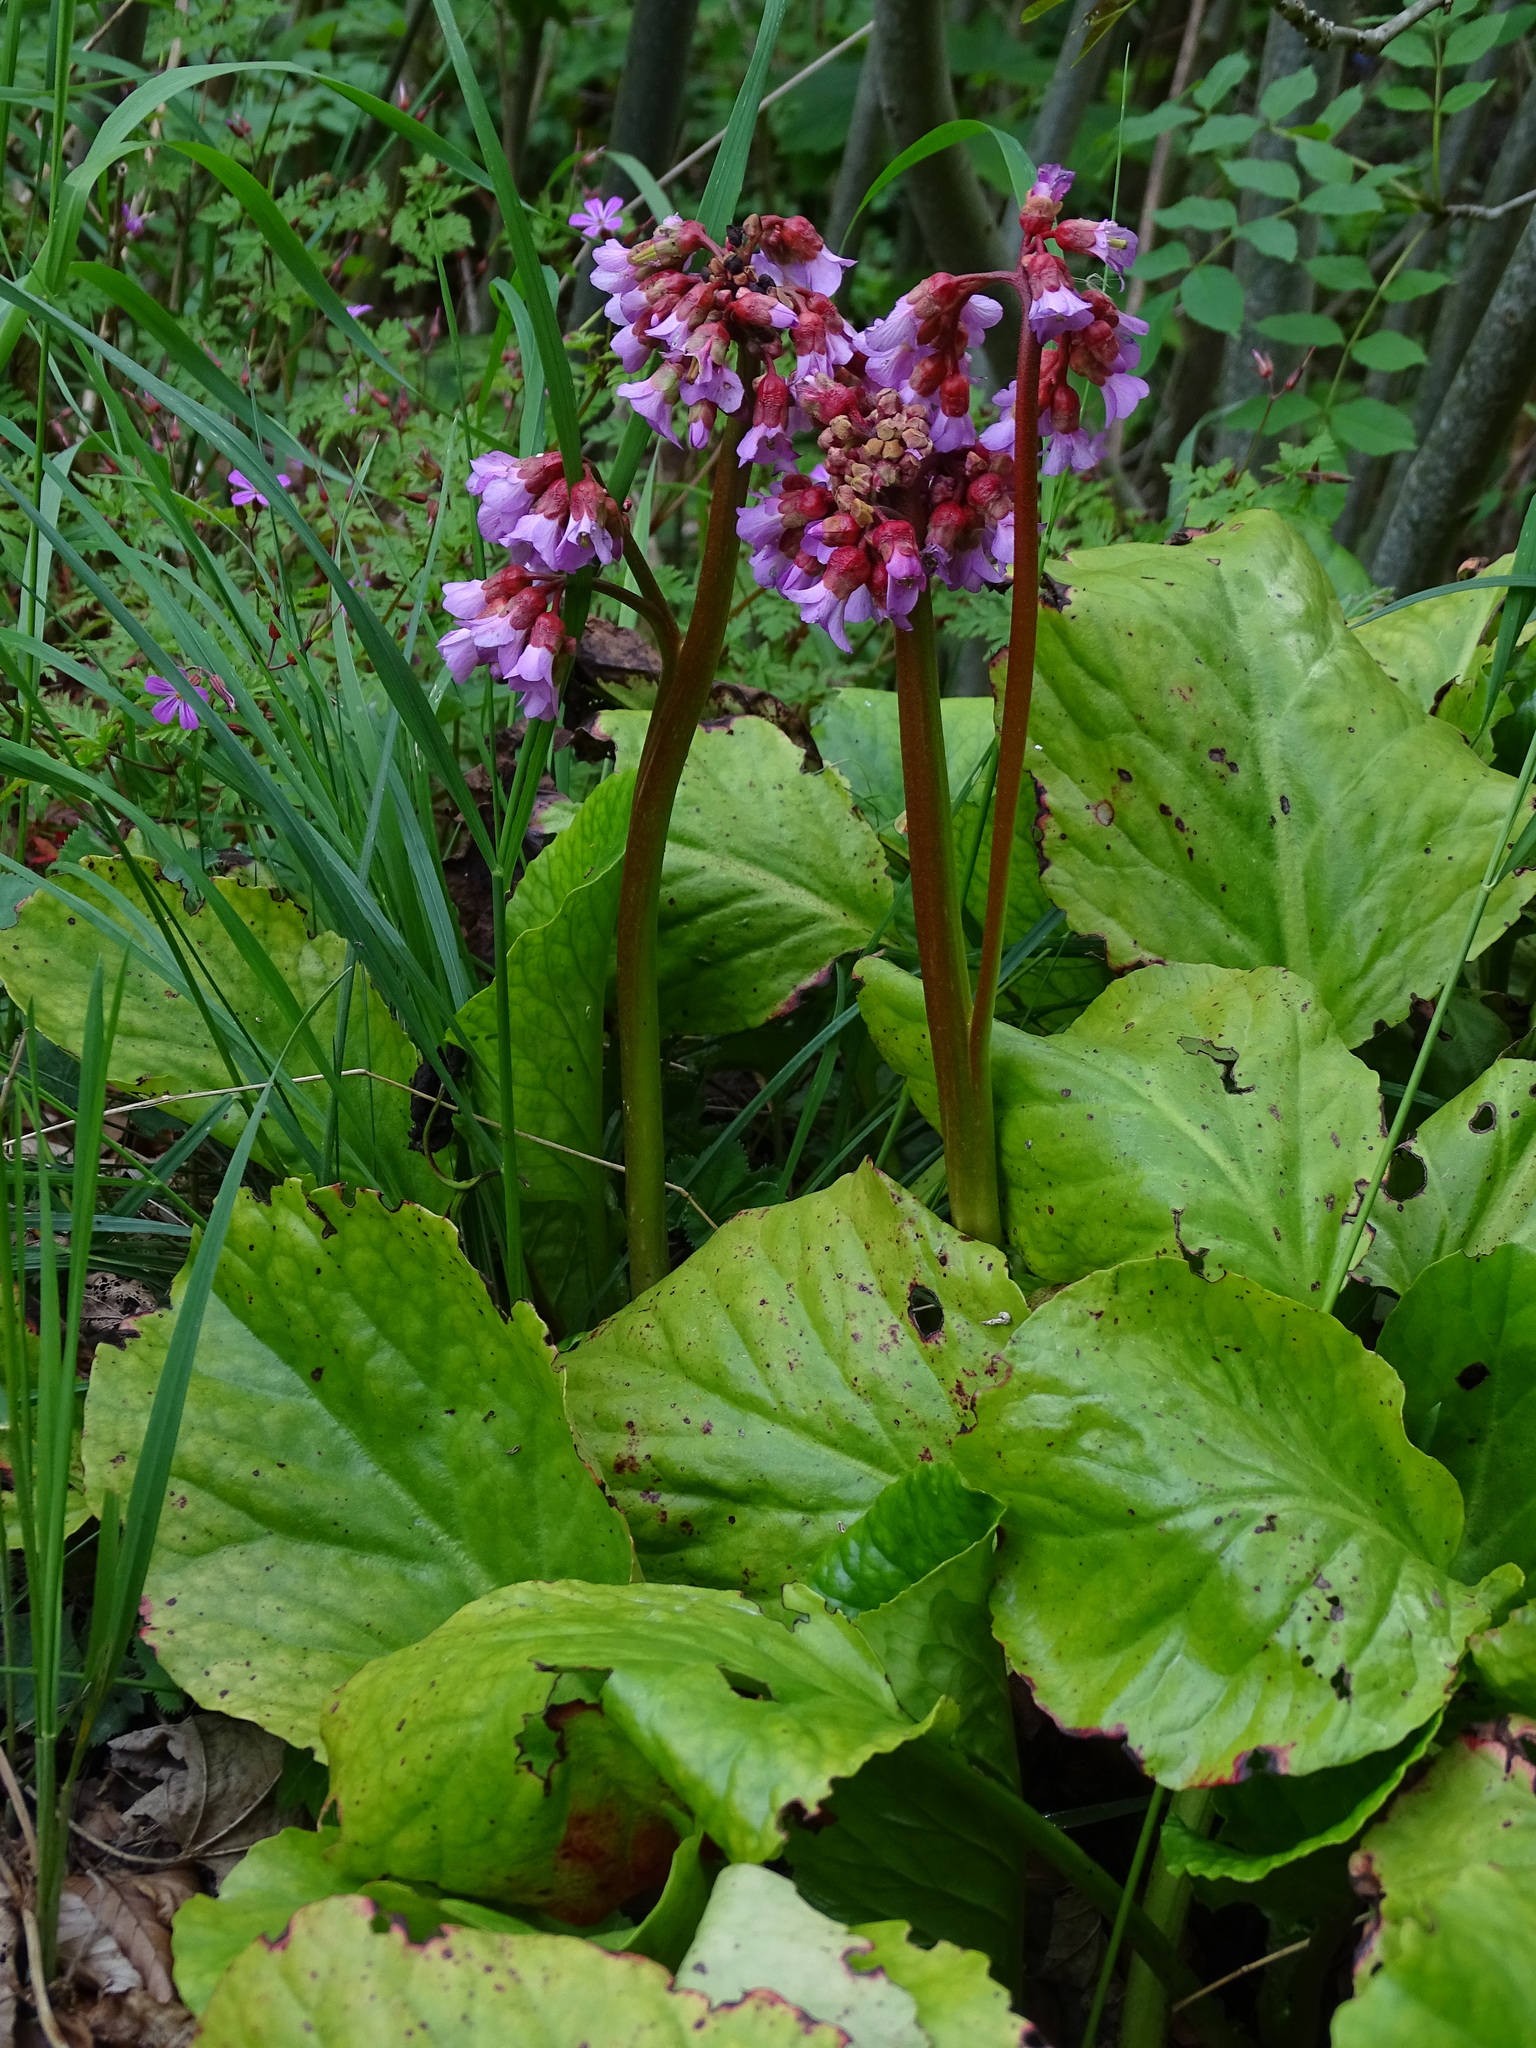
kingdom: Plantae
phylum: Tracheophyta
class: Magnoliopsida
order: Saxifragales
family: Saxifragaceae
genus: Bergenia
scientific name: Bergenia crassifolia
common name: Elephant-ears
